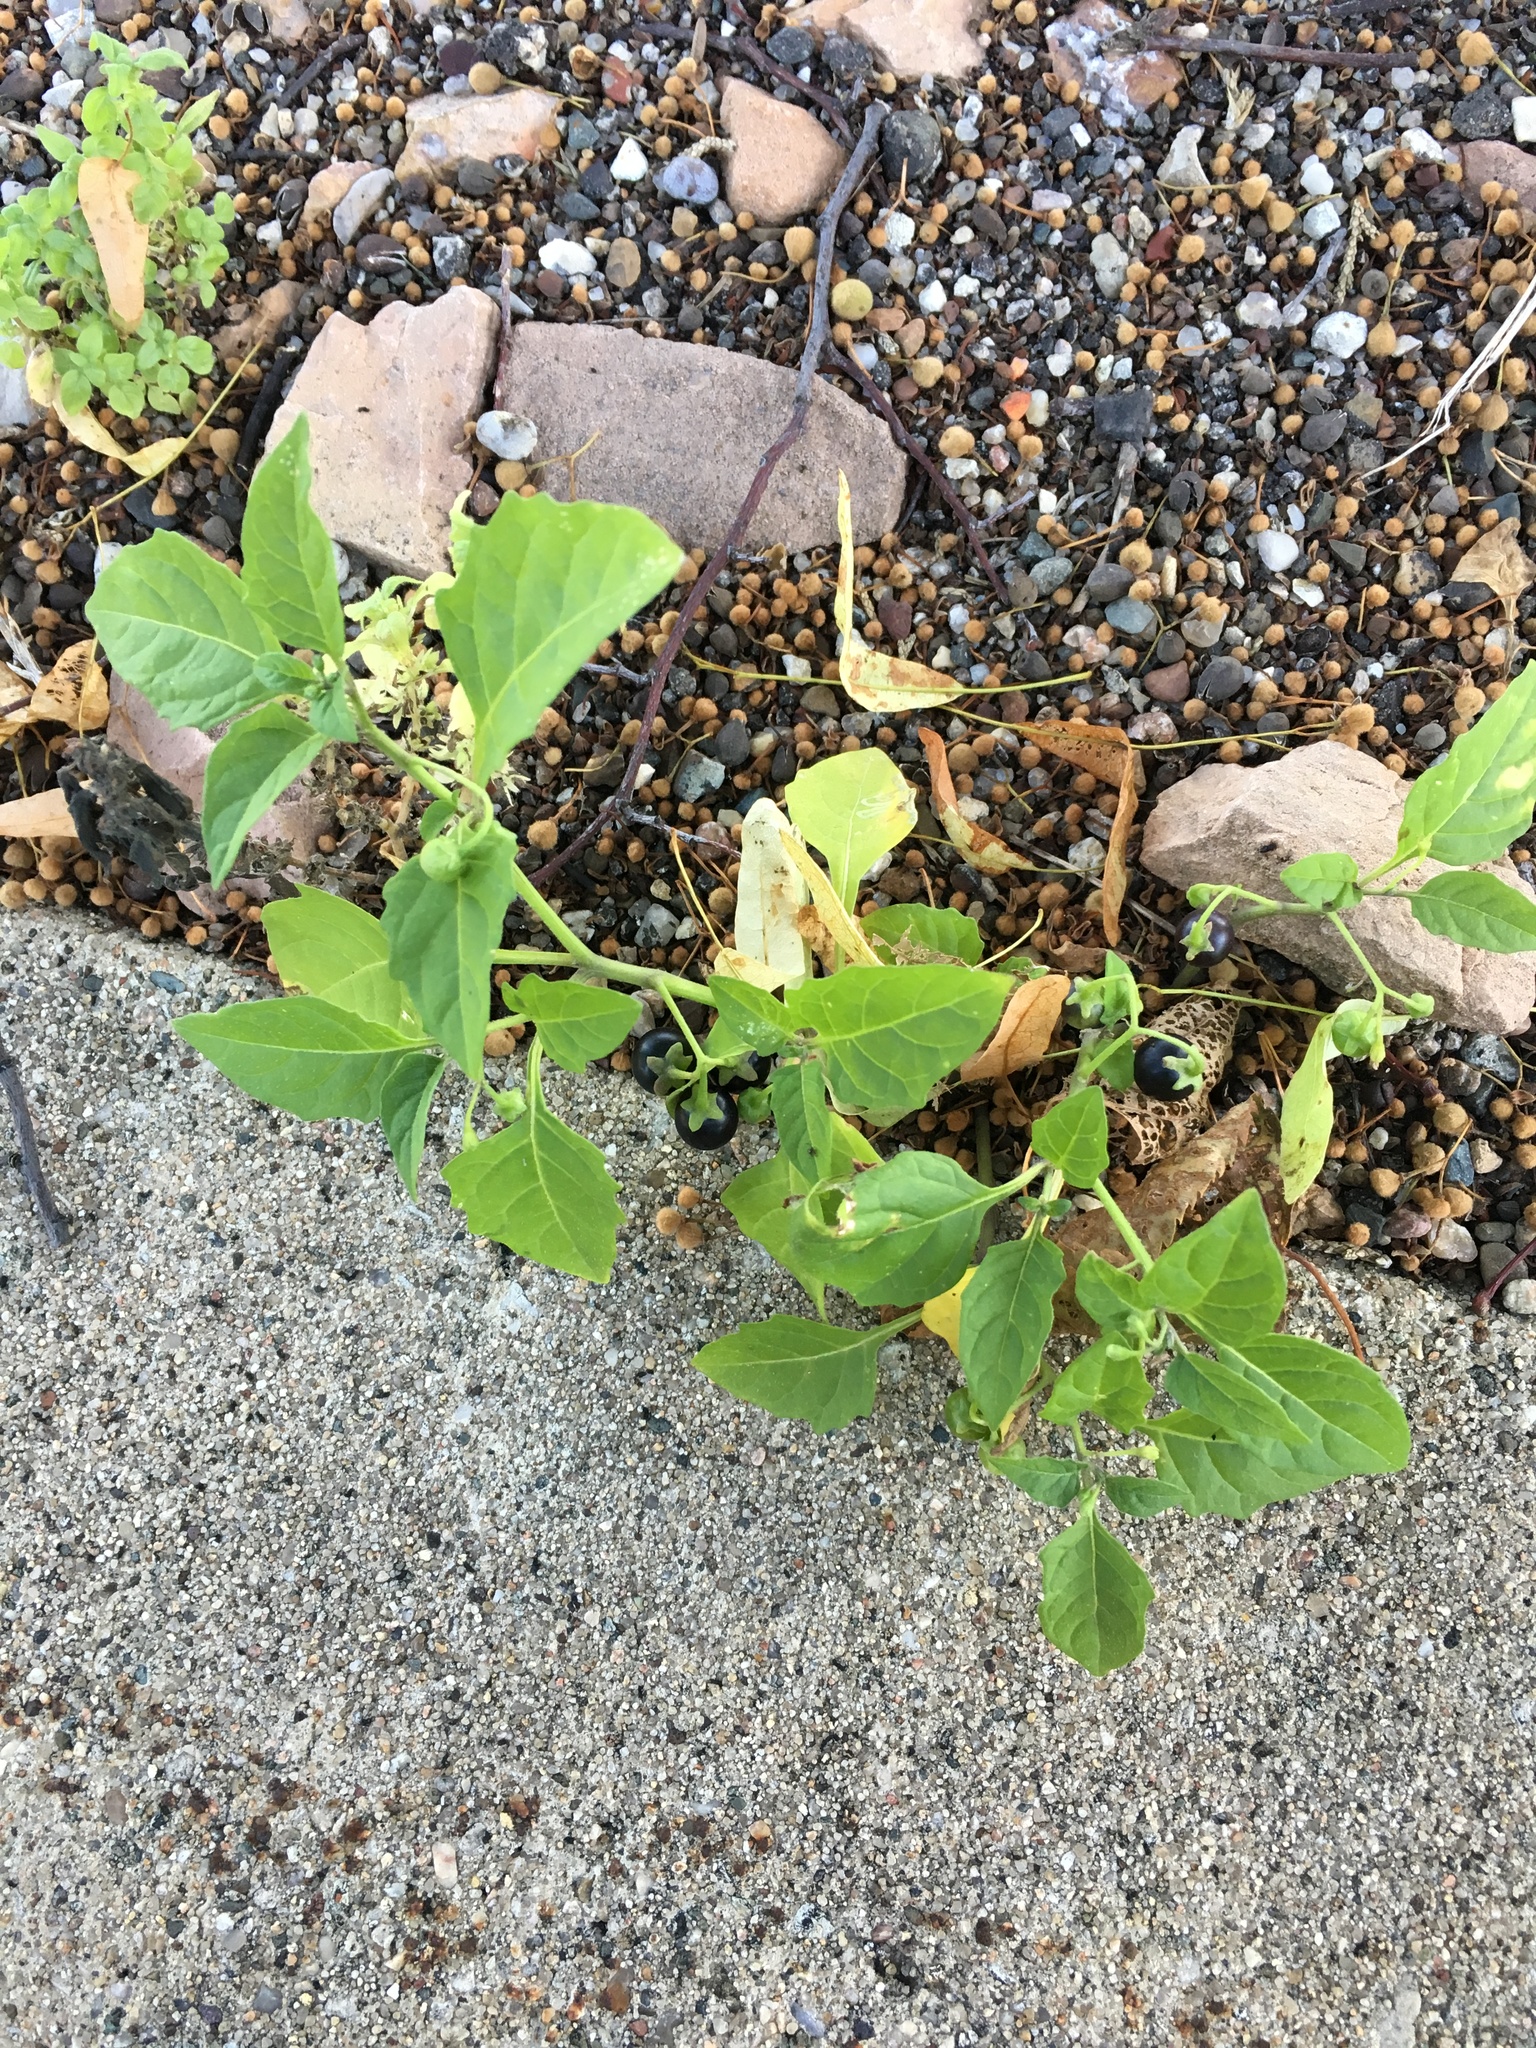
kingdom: Plantae
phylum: Tracheophyta
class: Magnoliopsida
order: Solanales
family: Solanaceae
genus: Solanum
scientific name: Solanum emulans
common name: Eastern black nightshade
